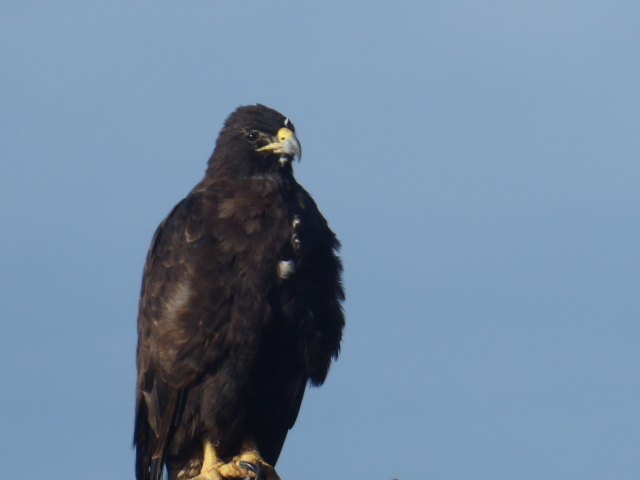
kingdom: Animalia
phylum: Chordata
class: Aves
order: Accipitriformes
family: Accipitridae
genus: Buteo
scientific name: Buteo galapagoensis
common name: Galapagos hawk
